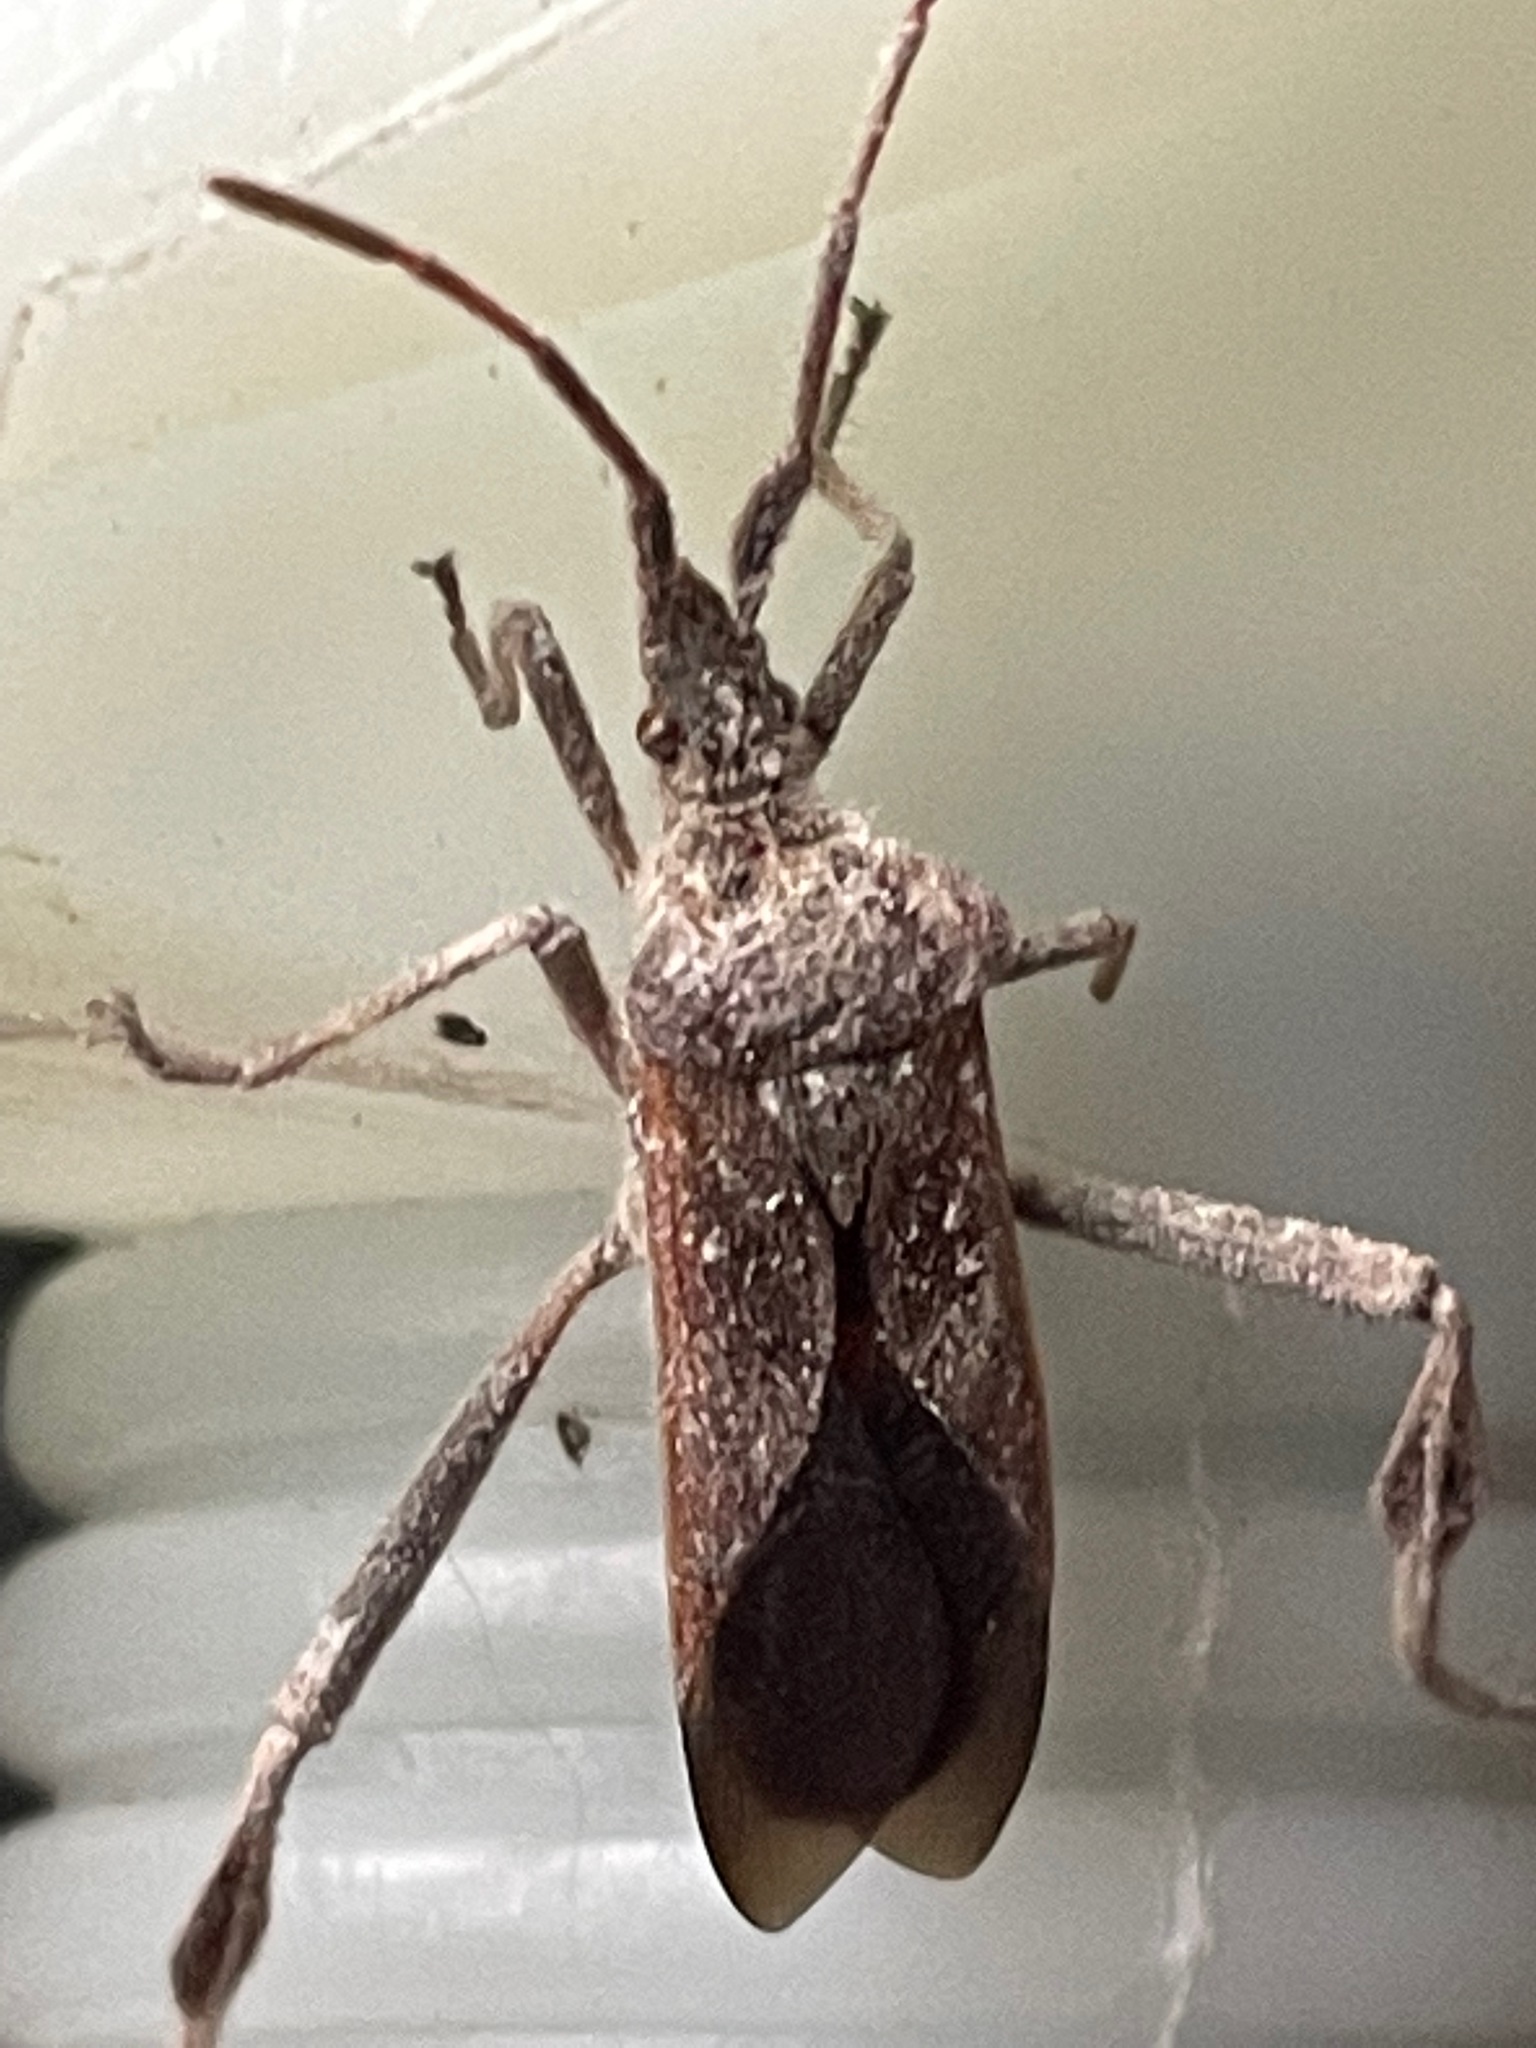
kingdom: Animalia
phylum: Arthropoda
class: Insecta
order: Hemiptera
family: Coreidae
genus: Leptoglossus
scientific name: Leptoglossus occidentalis
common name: Western conifer-seed bug
